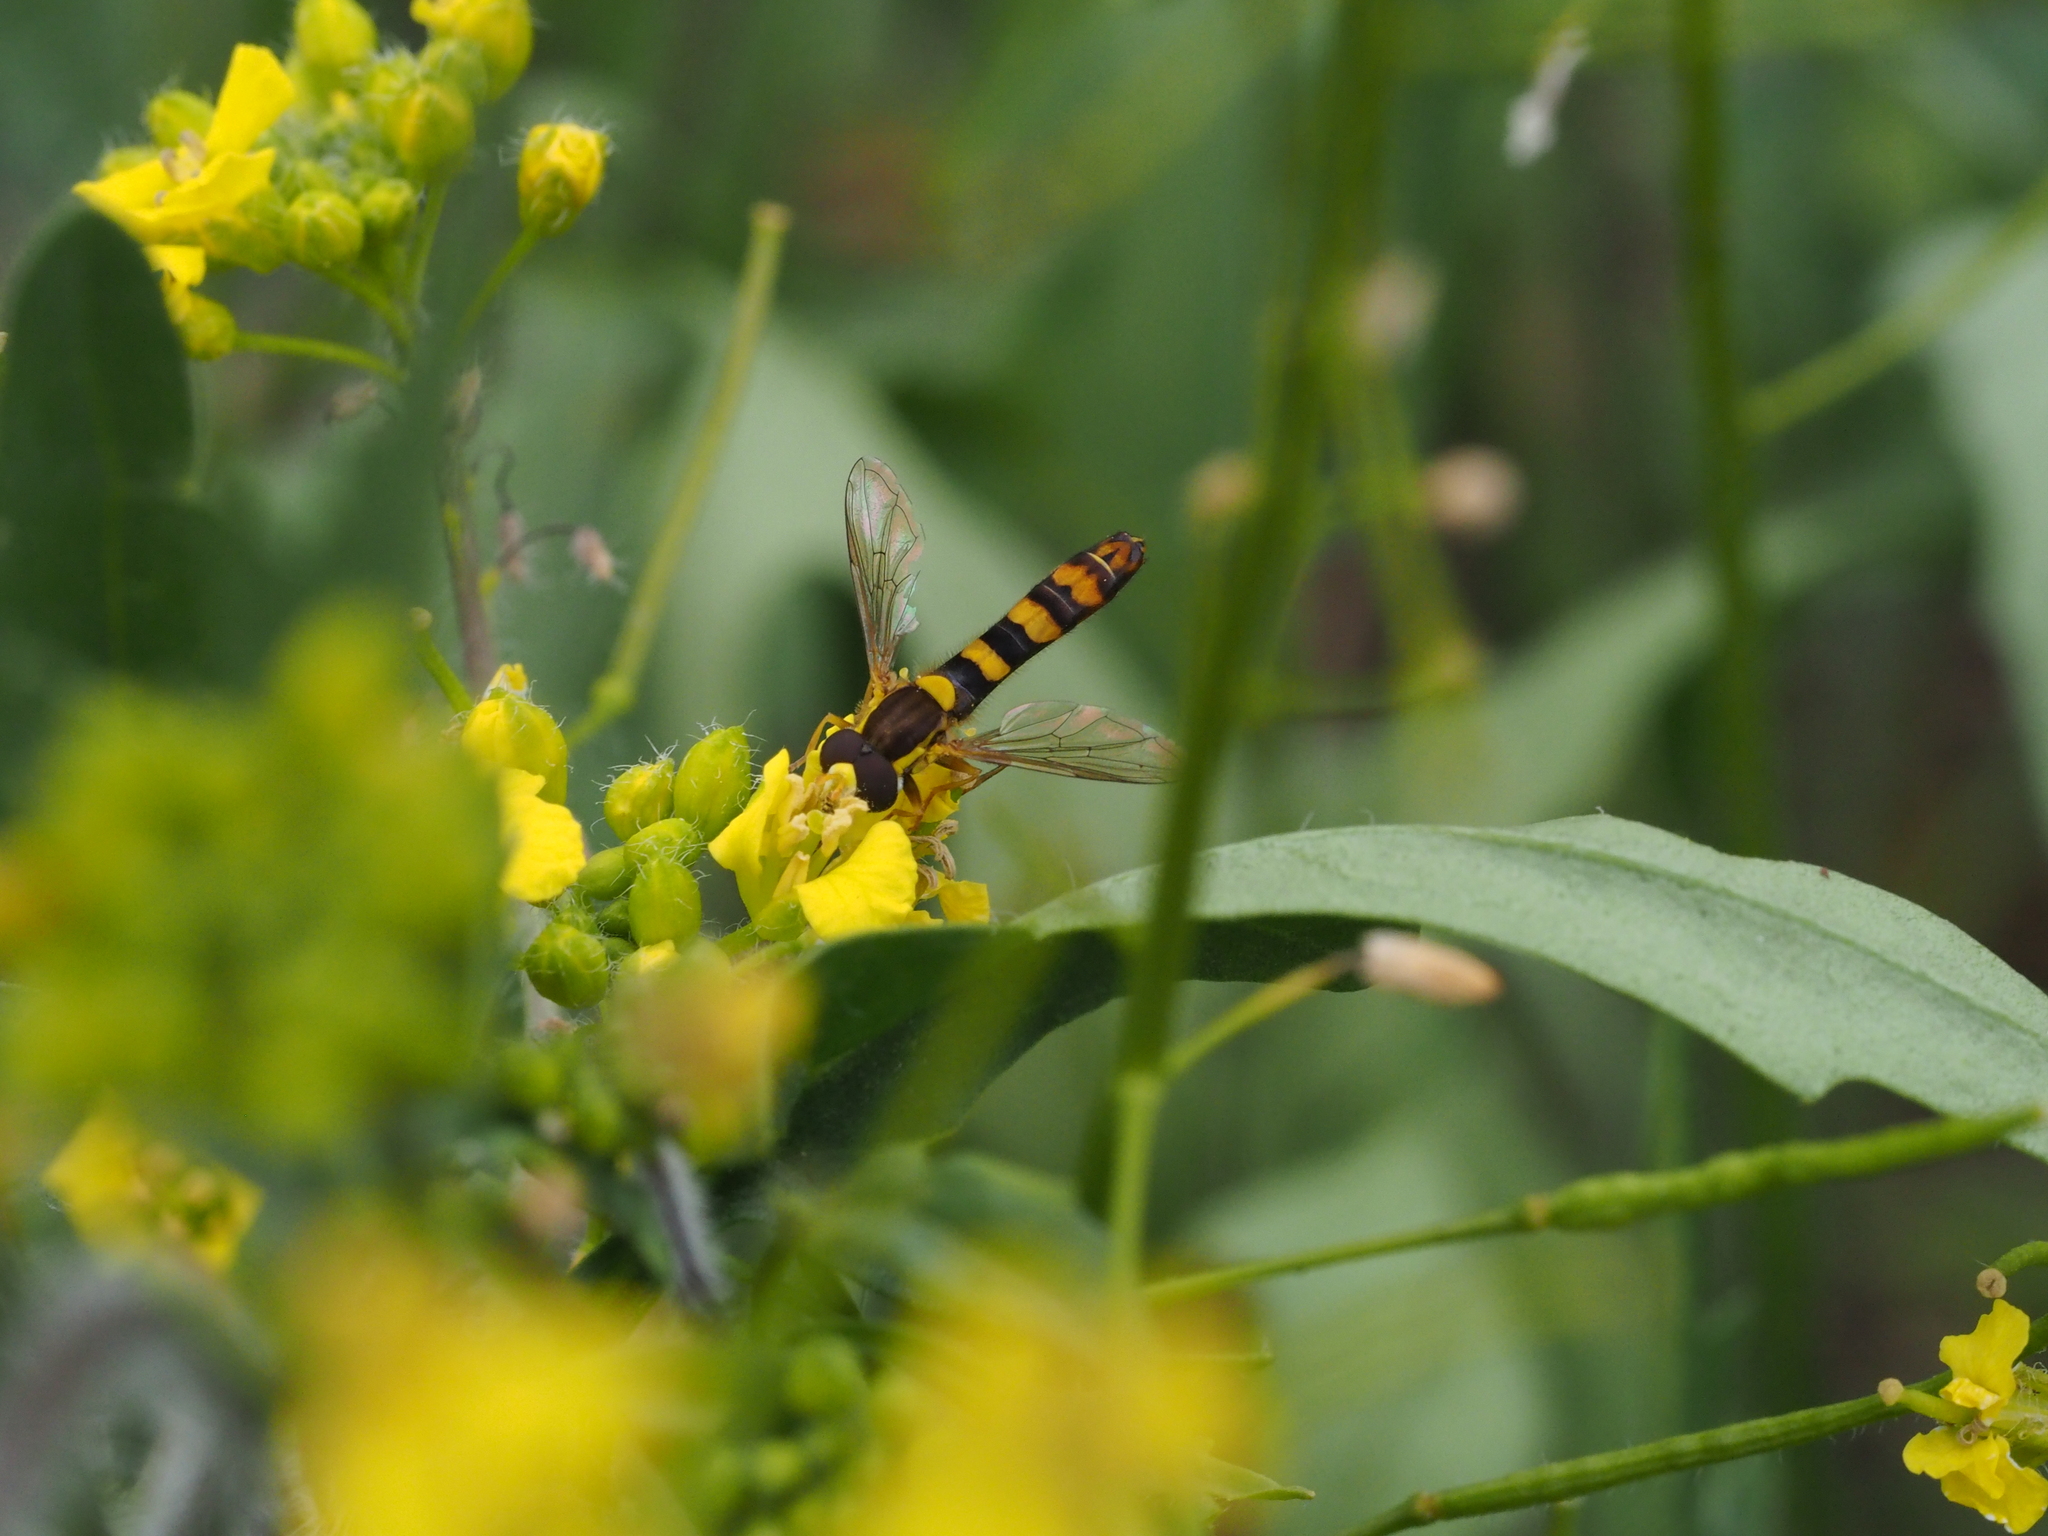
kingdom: Animalia
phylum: Arthropoda
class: Insecta
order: Diptera
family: Syrphidae
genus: Sphaerophoria
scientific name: Sphaerophoria scripta
